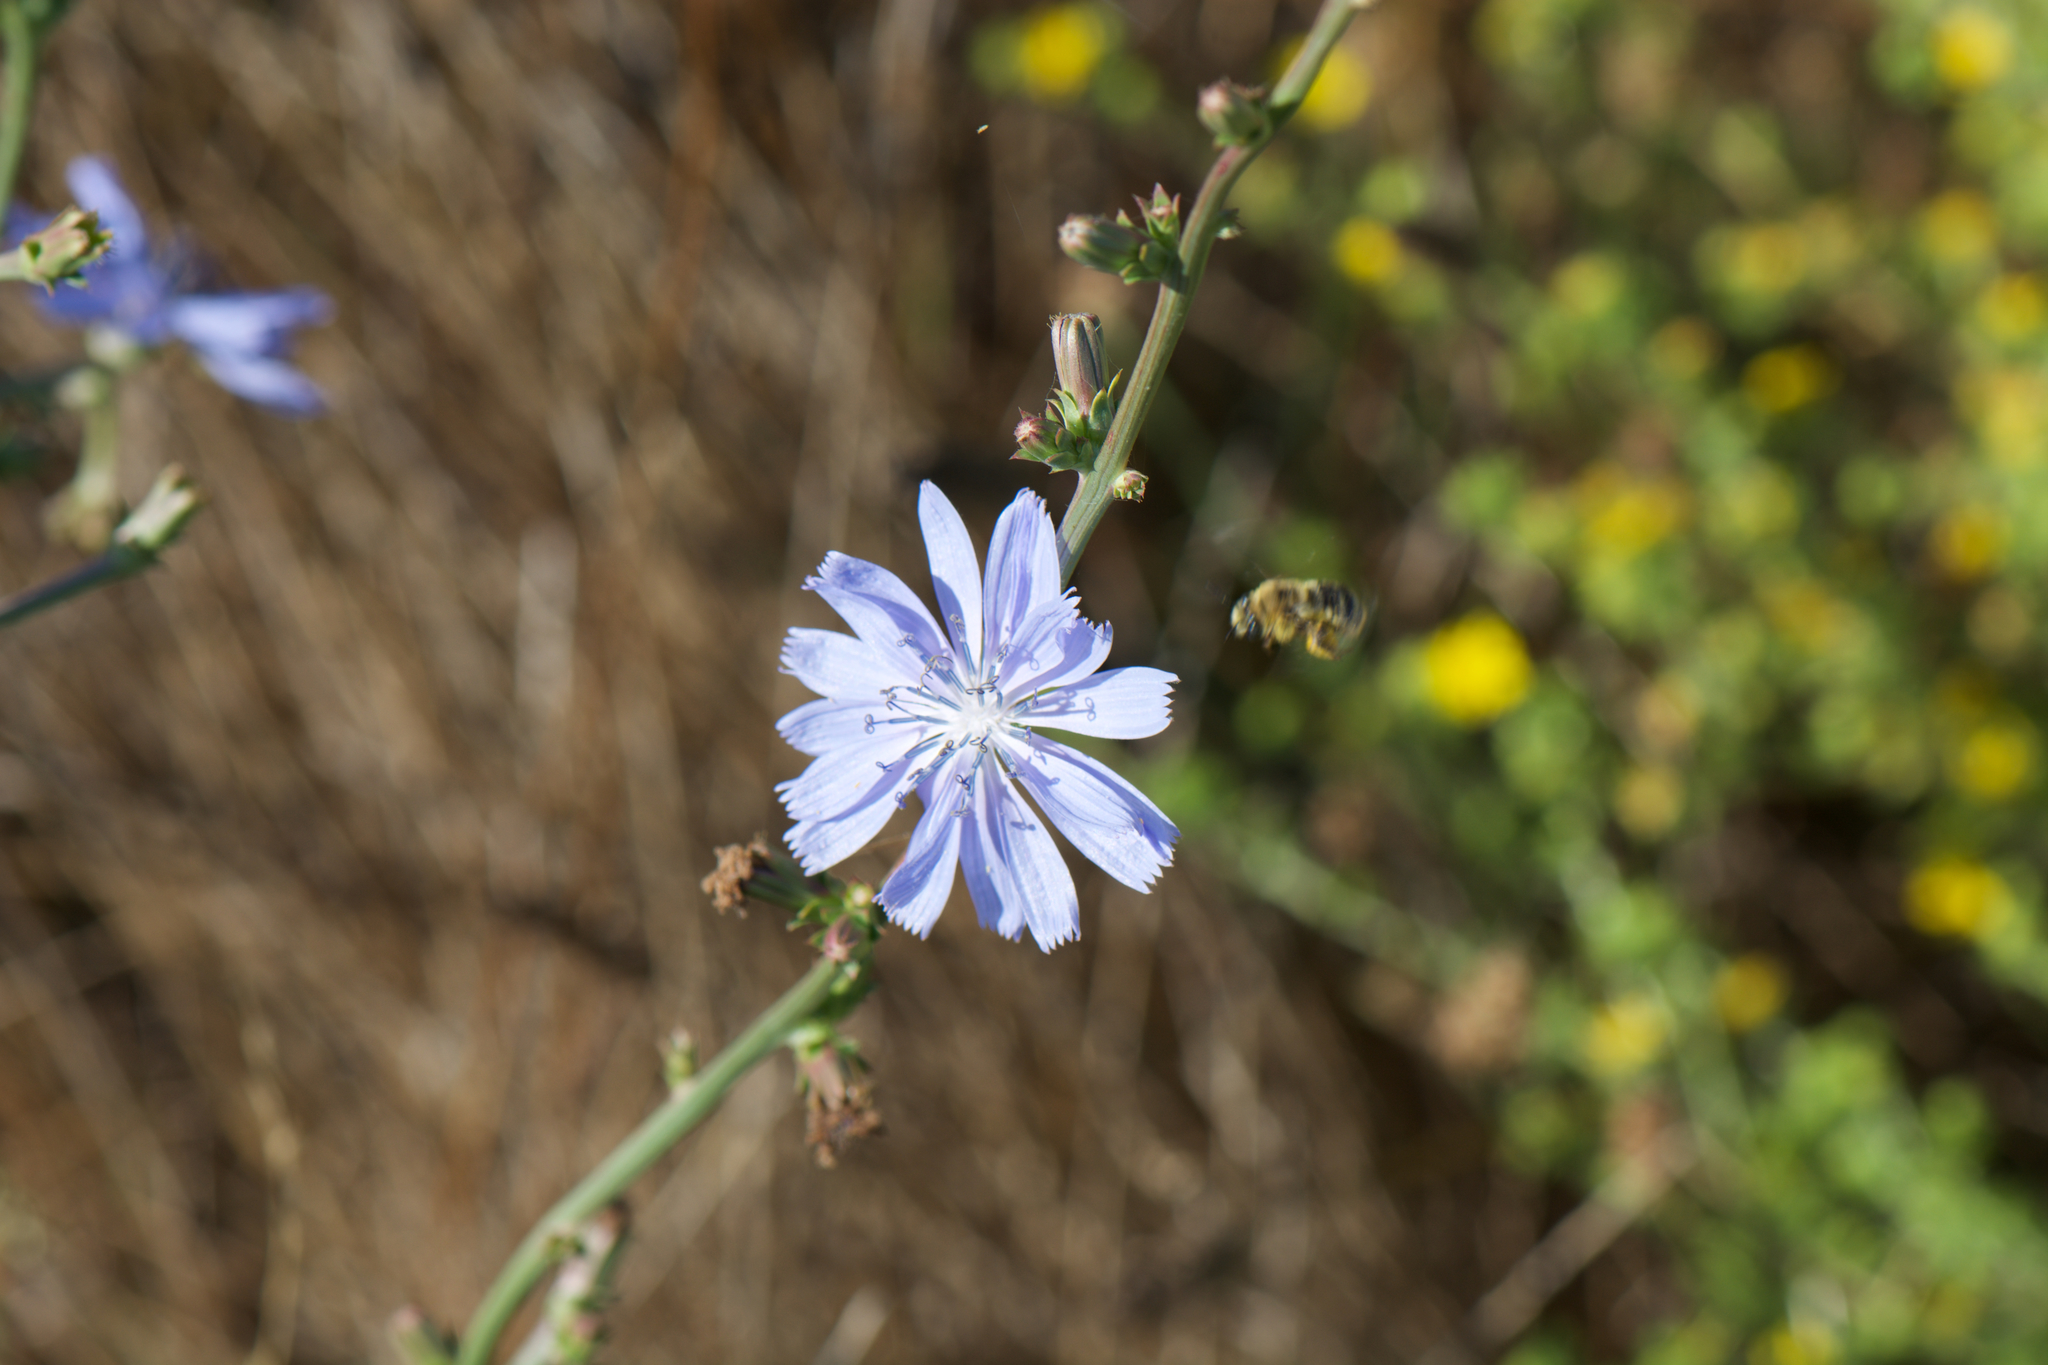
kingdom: Plantae
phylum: Tracheophyta
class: Magnoliopsida
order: Asterales
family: Asteraceae
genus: Cichorium
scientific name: Cichorium intybus
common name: Chicory
